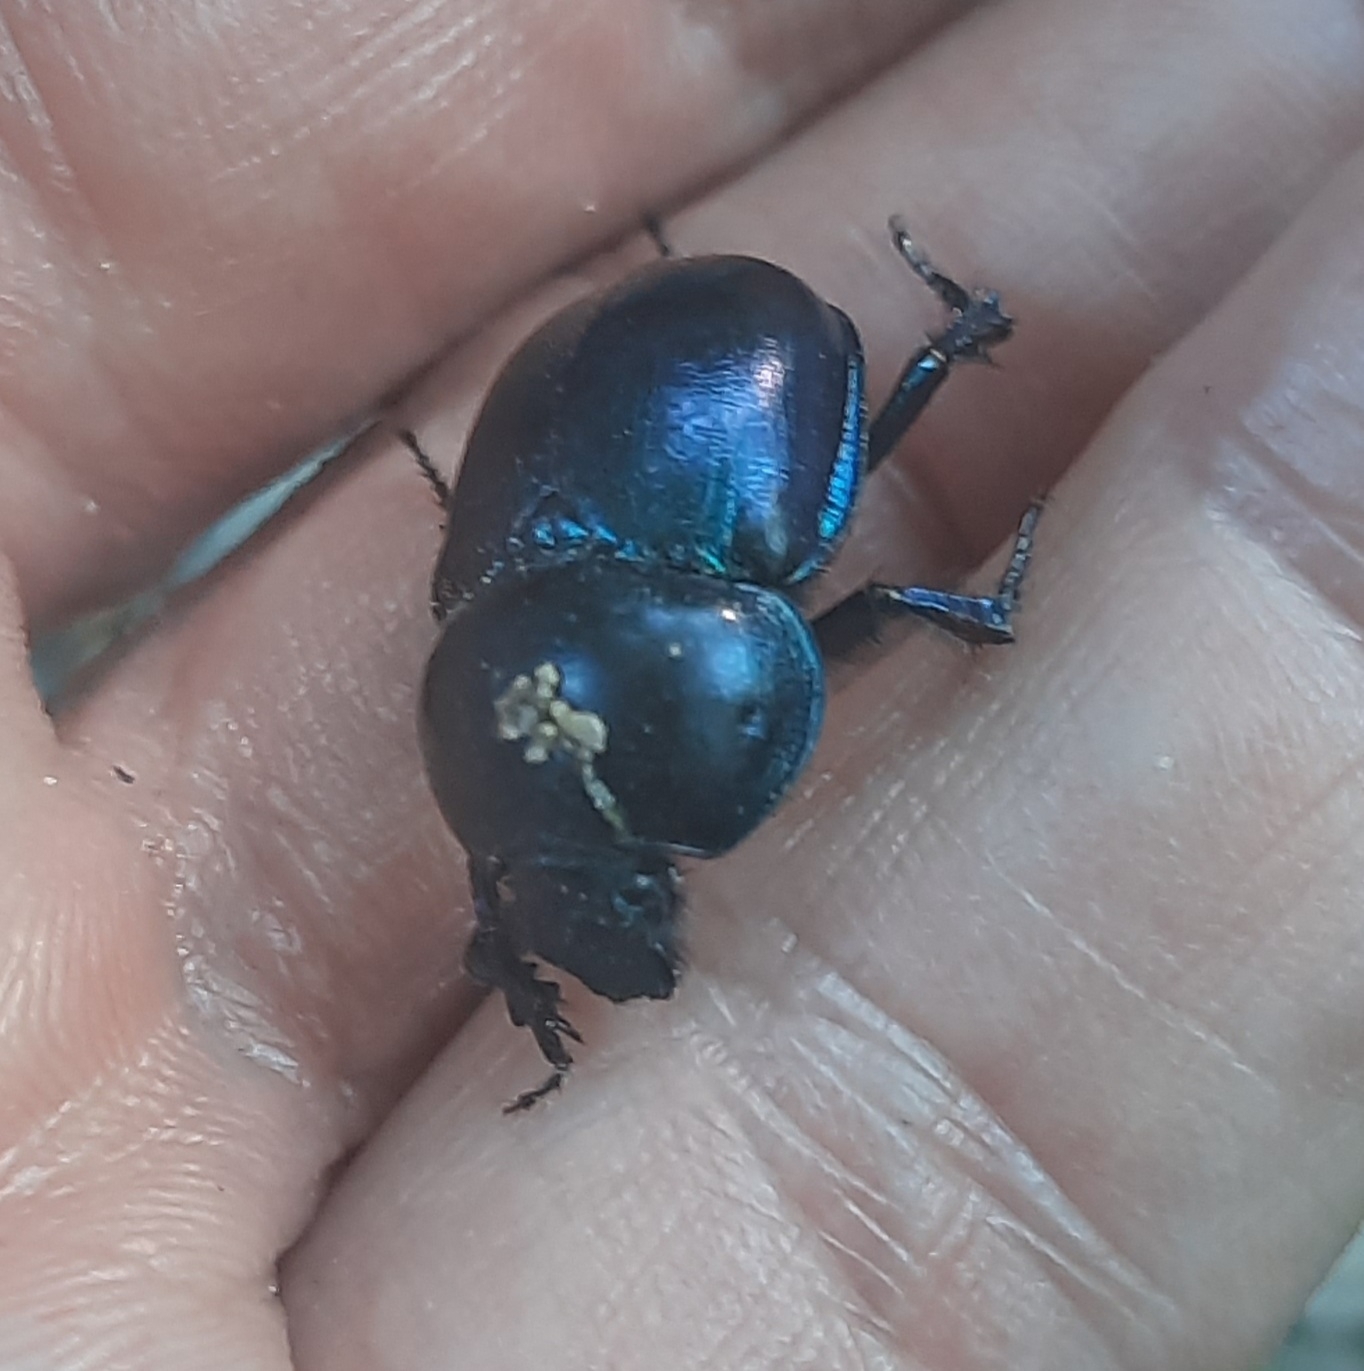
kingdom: Animalia
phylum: Arthropoda
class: Insecta
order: Coleoptera
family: Geotrupidae
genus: Trypocopris
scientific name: Trypocopris vernalis
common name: Spring dumbledor
